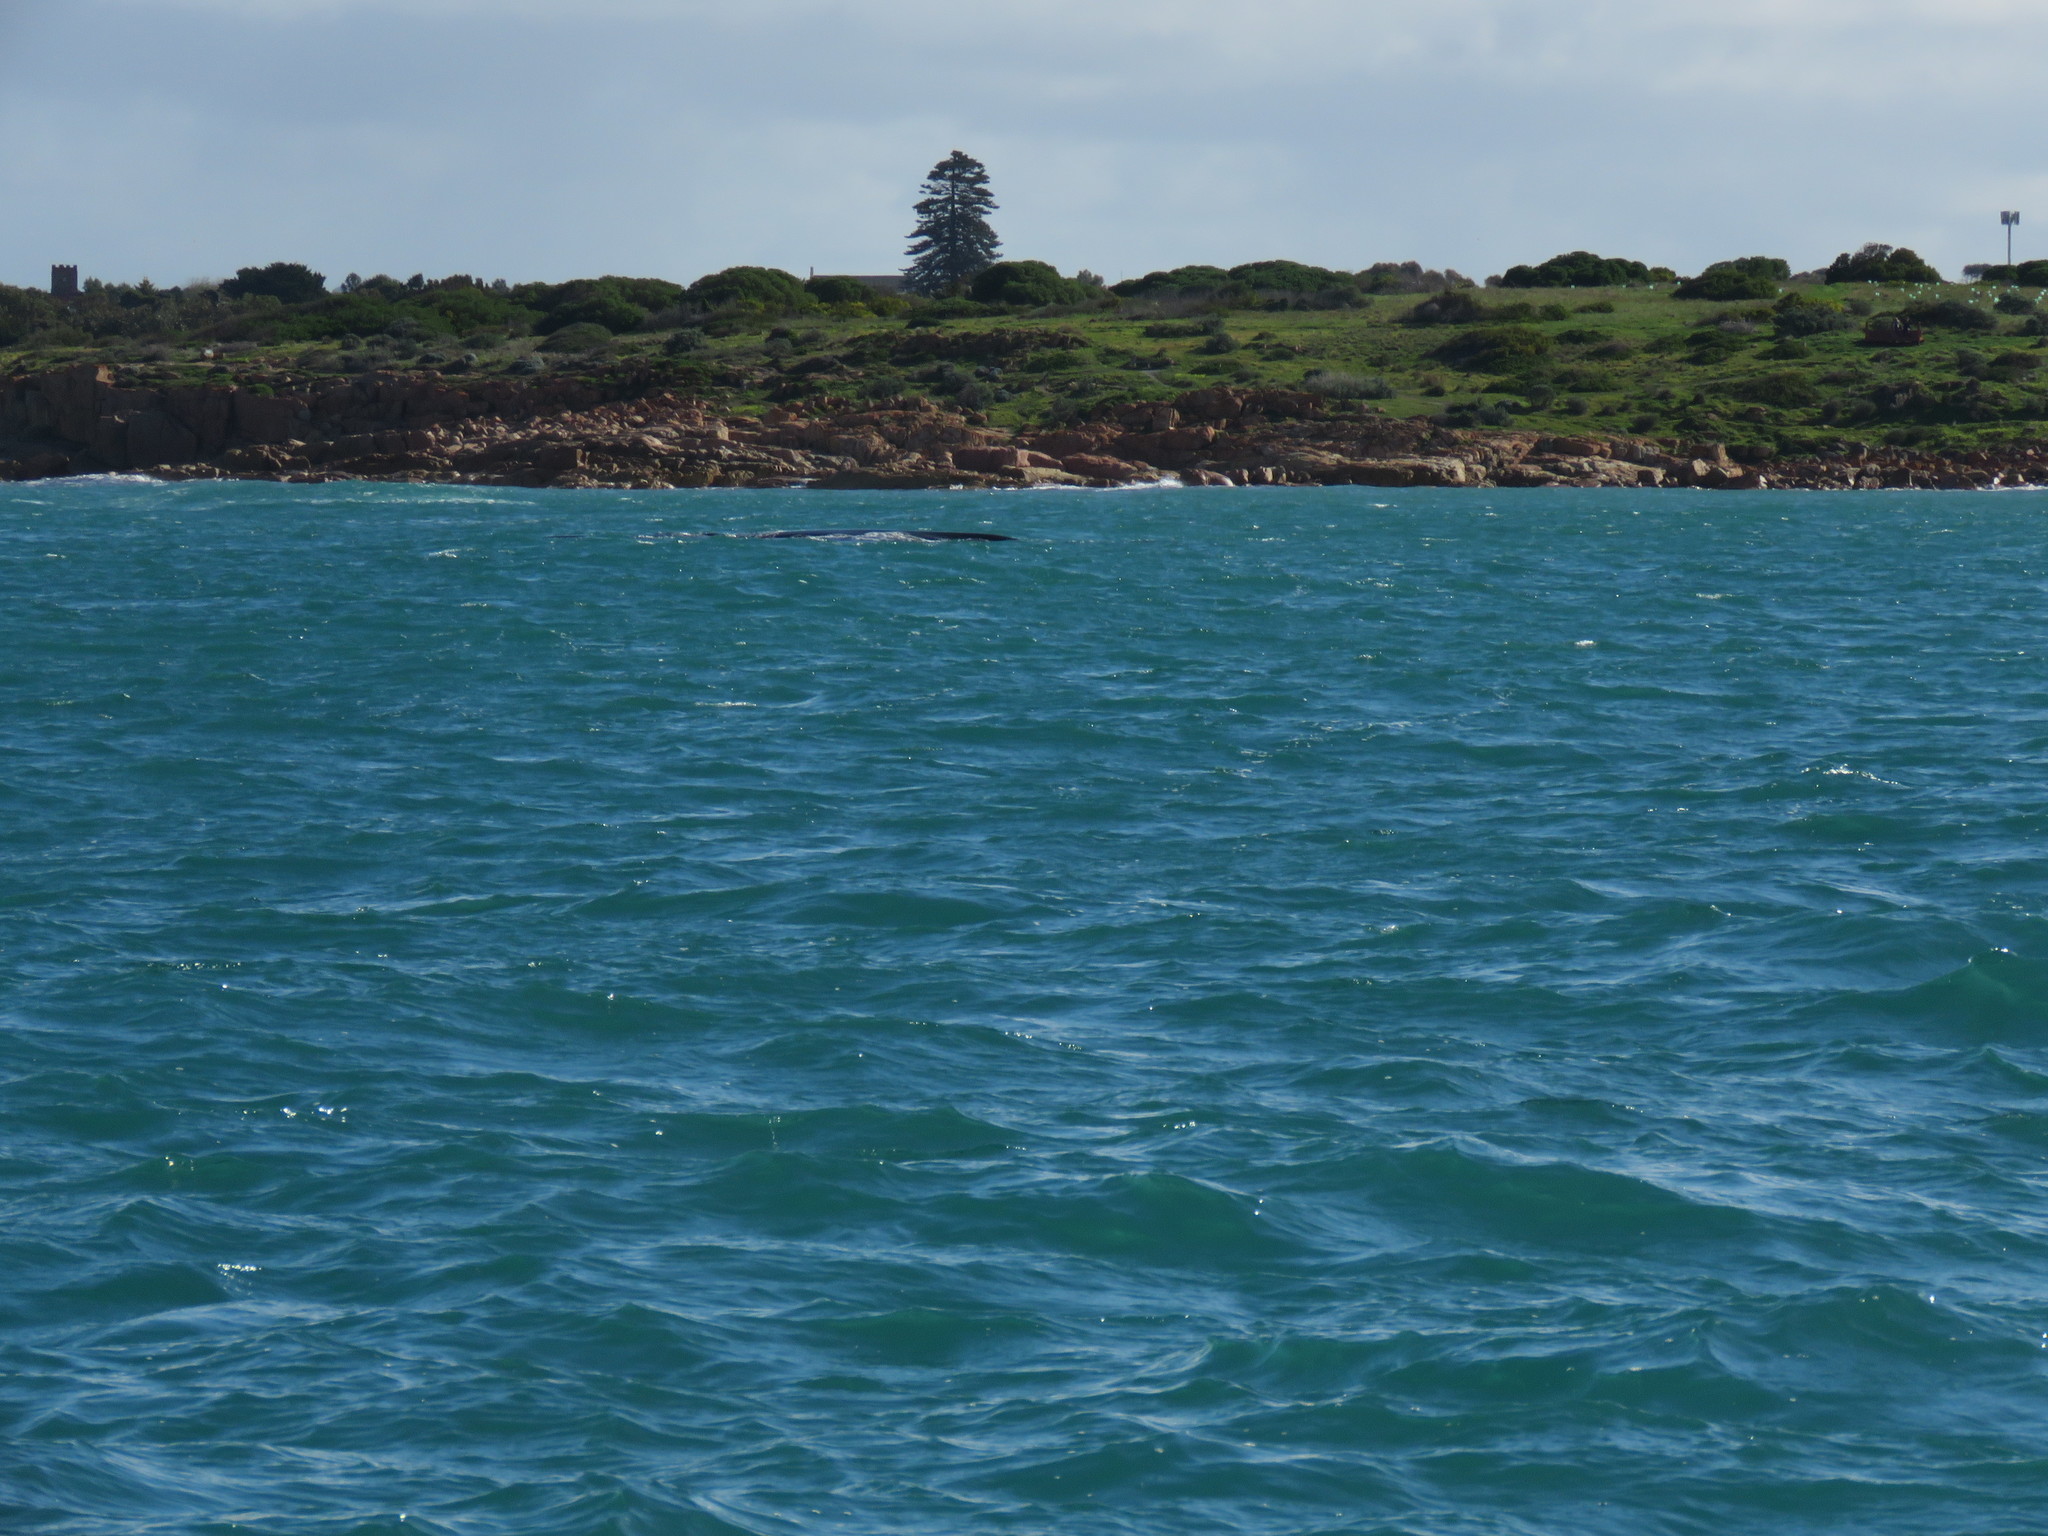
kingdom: Animalia
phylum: Chordata
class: Mammalia
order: Cetacea
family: Balaenidae
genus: Eubalaena
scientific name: Eubalaena australis
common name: Southern right whale
